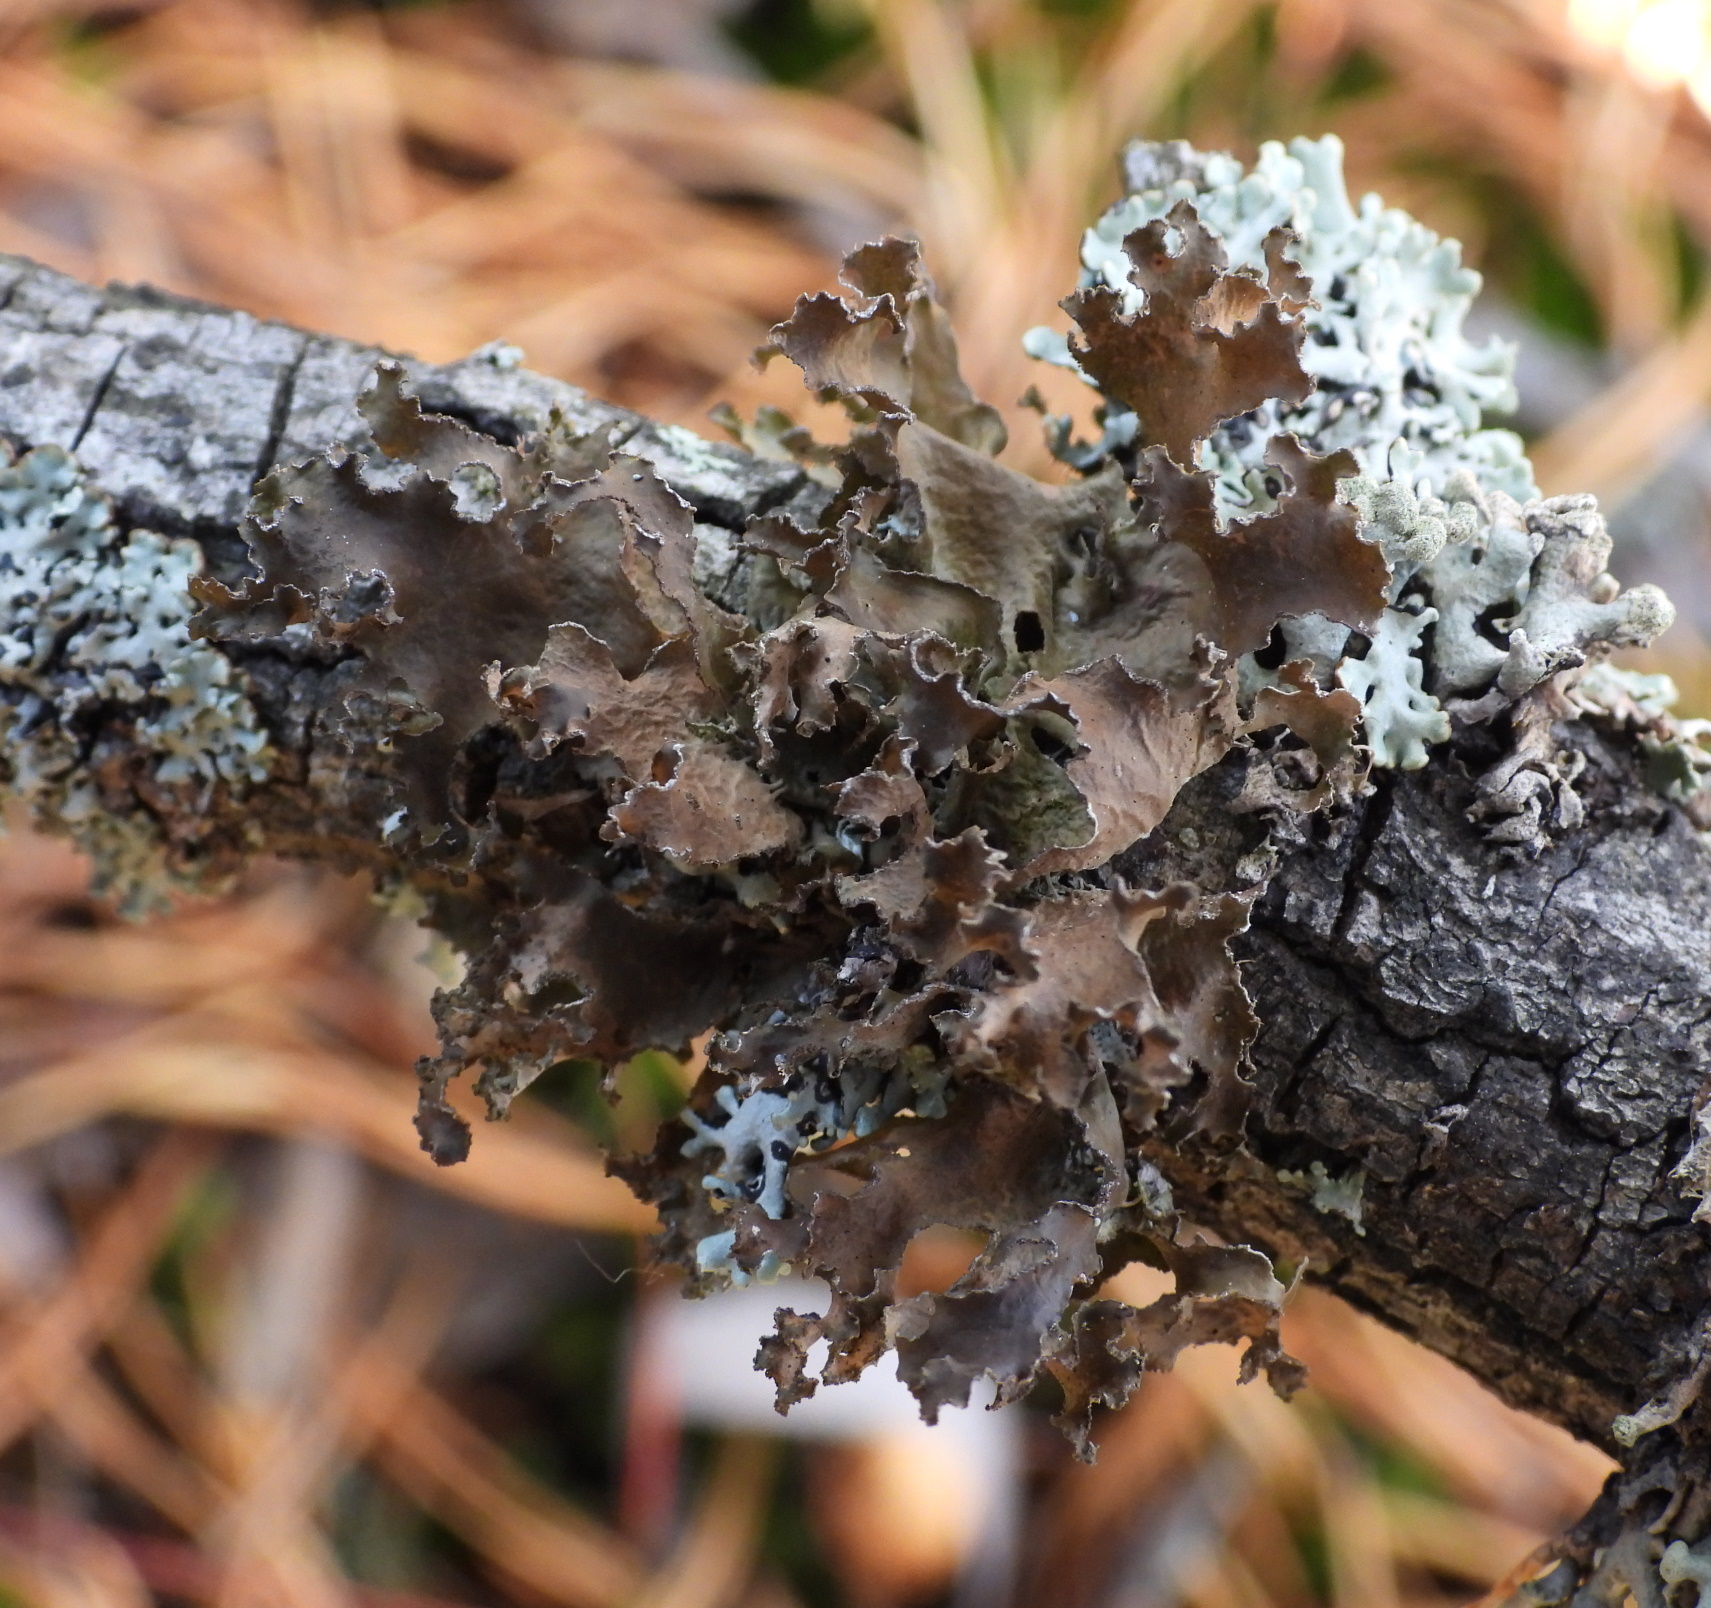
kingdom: Fungi
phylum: Ascomycota
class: Lecanoromycetes
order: Lecanorales
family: Parmeliaceae
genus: Nephromopsis
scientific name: Nephromopsis chlorophylla
